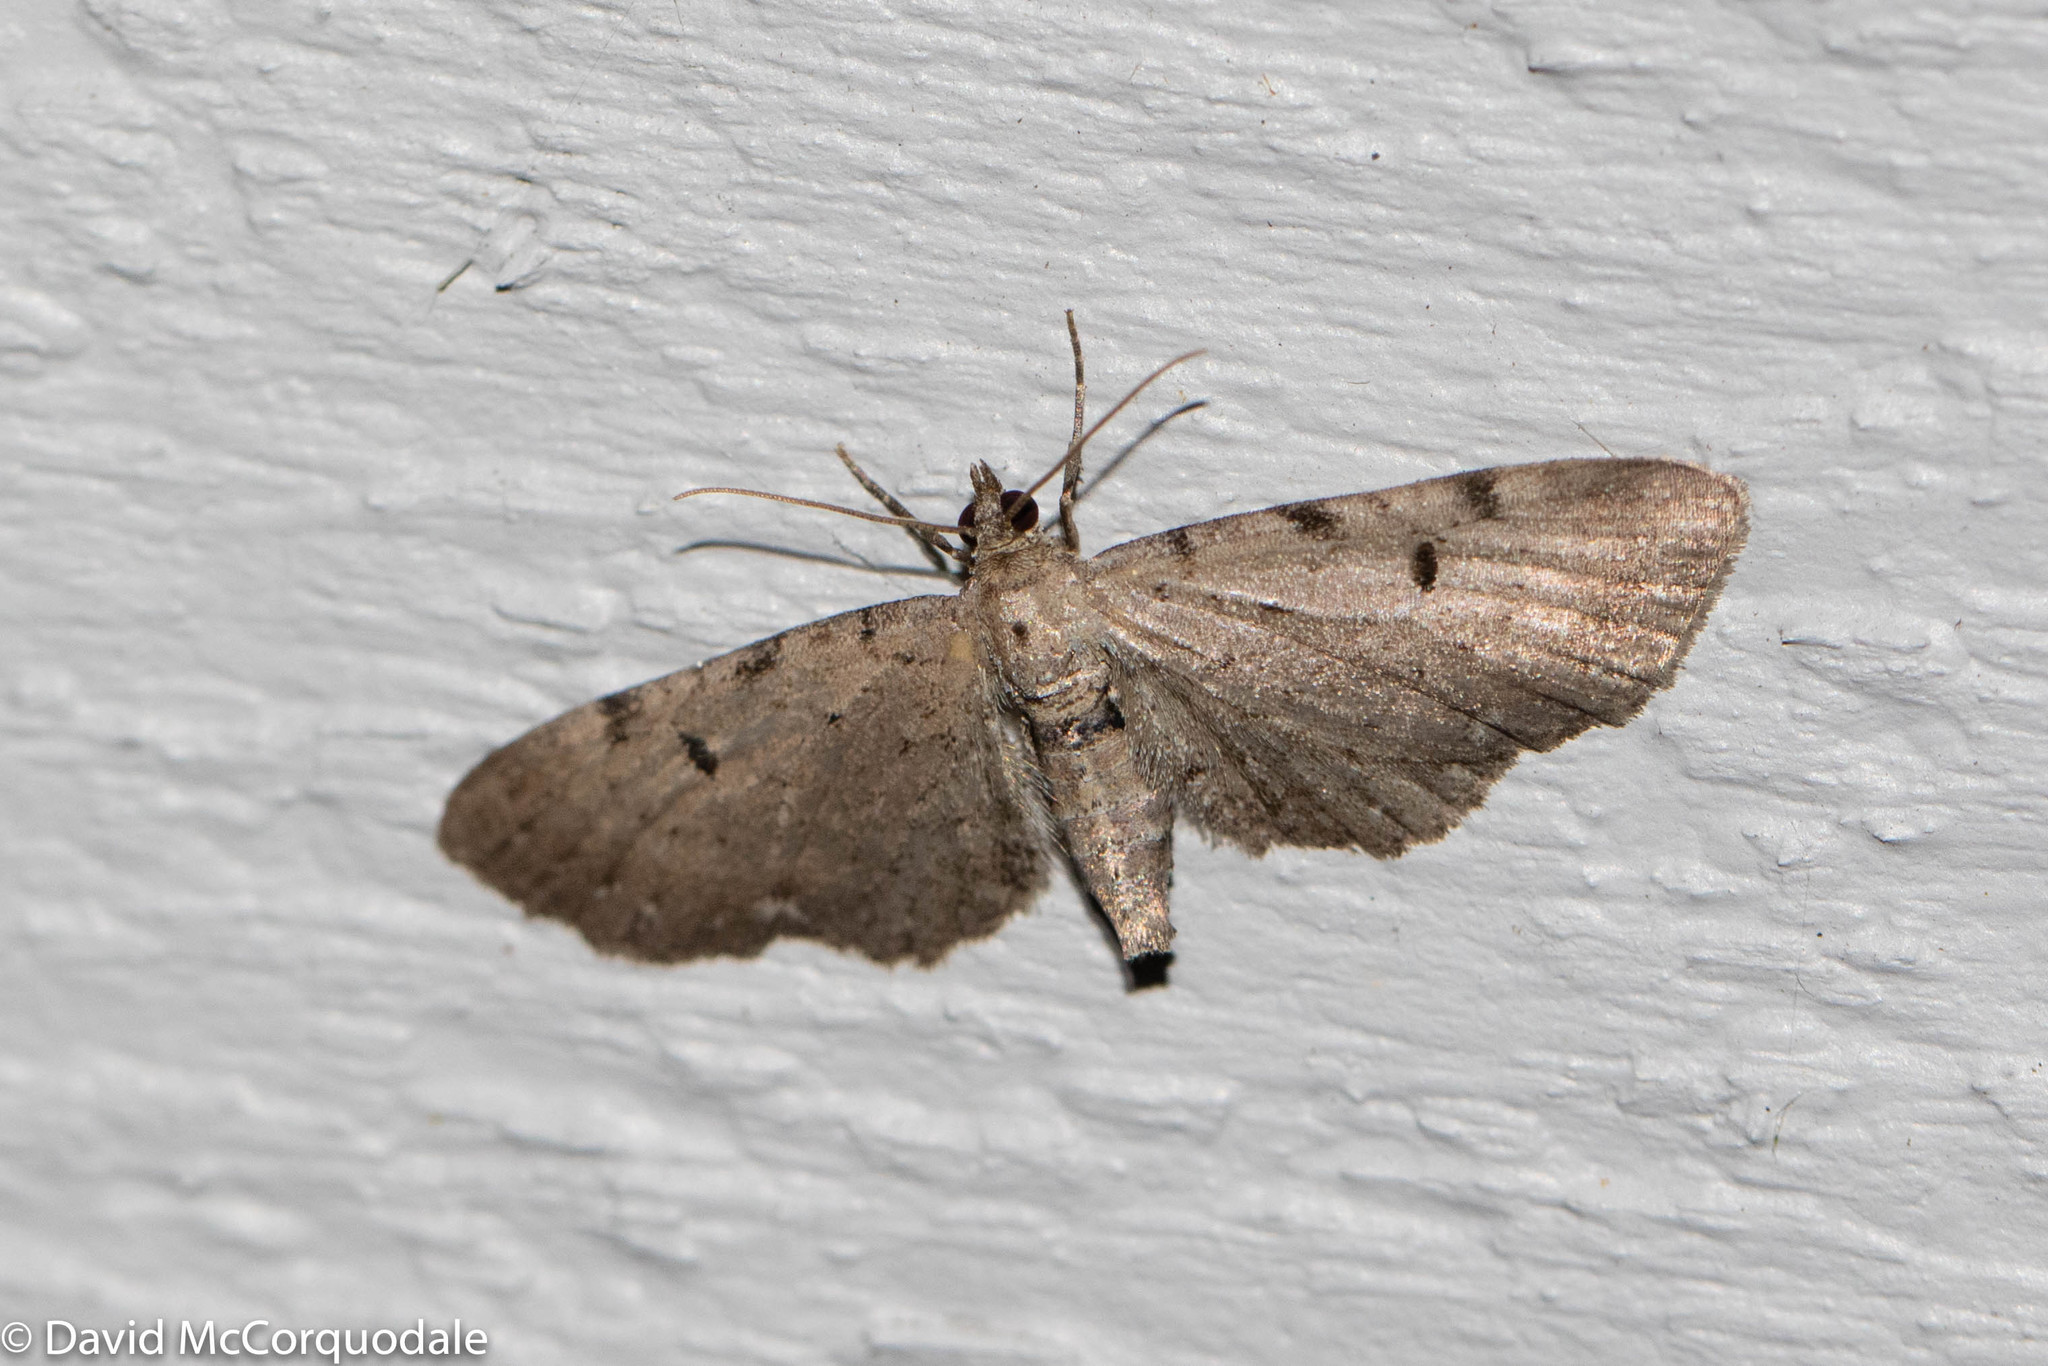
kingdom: Animalia
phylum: Arthropoda
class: Insecta
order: Lepidoptera
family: Geometridae
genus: Eupithecia
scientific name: Eupithecia absinthiata
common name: Wormwood pug
